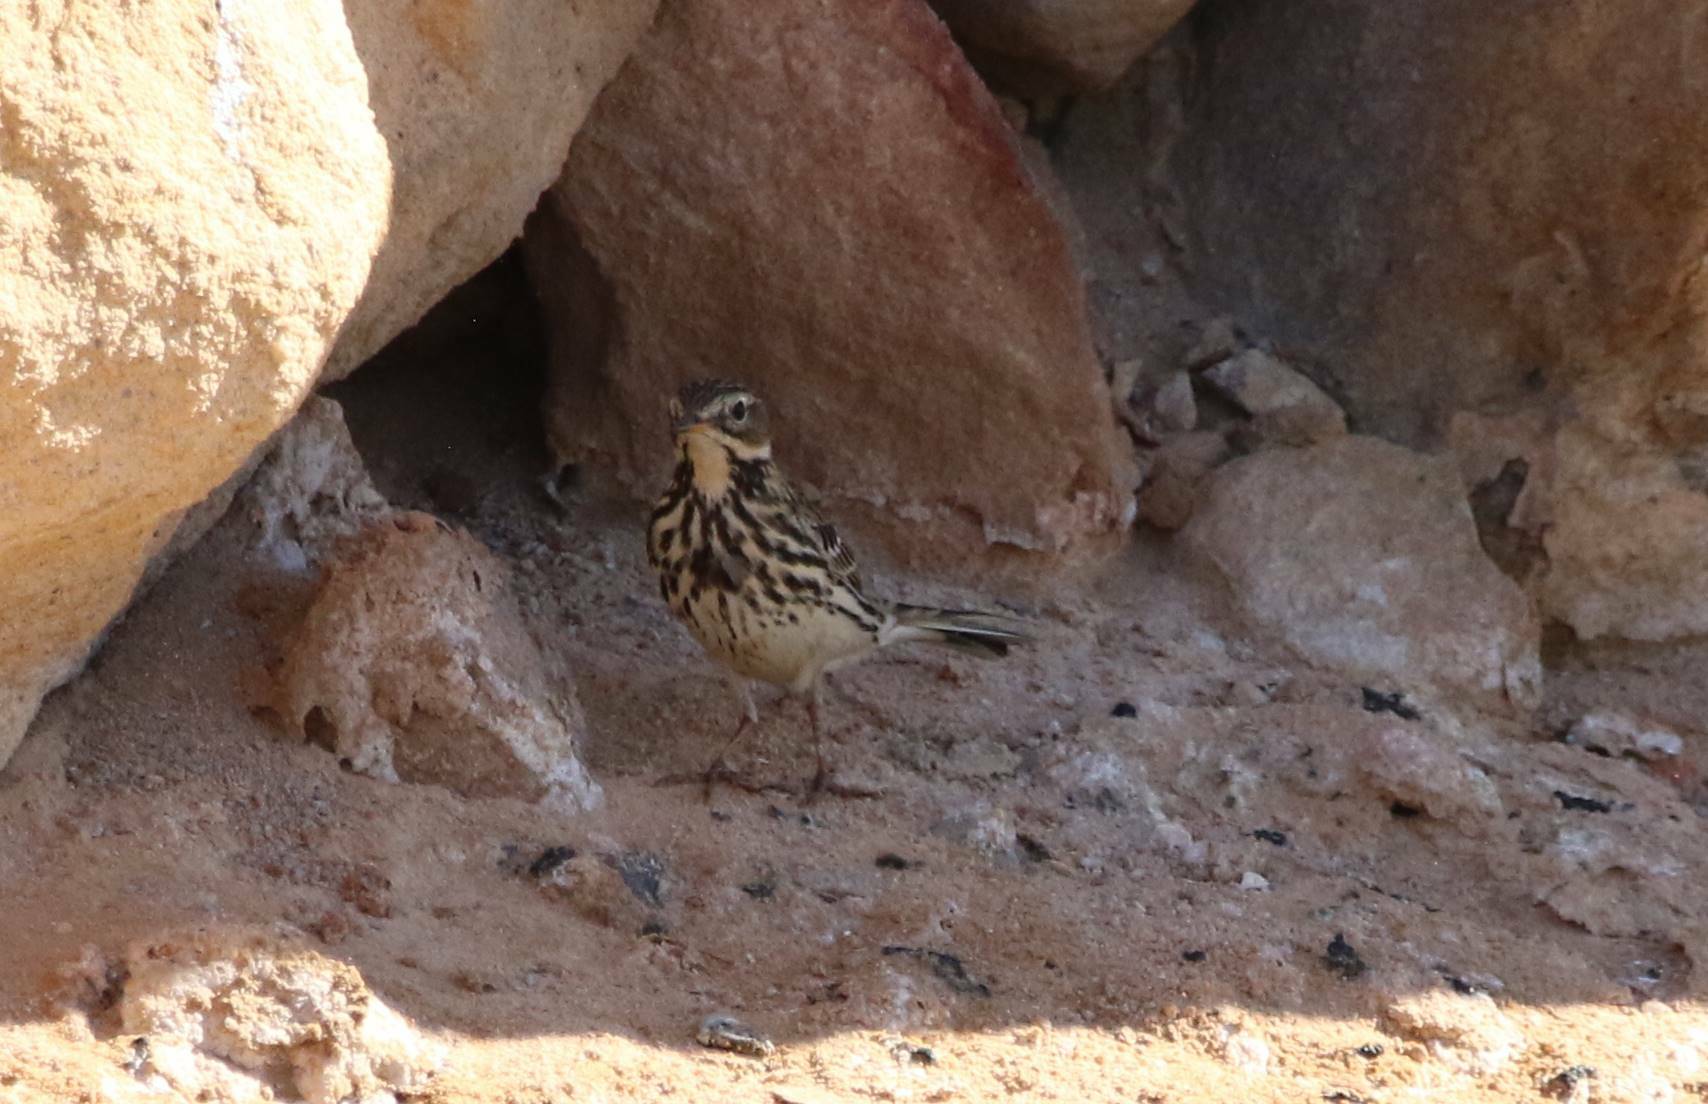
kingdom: Animalia
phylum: Chordata
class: Aves
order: Passeriformes
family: Motacillidae
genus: Anthus
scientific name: Anthus cervinus
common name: Red-throated pipit
